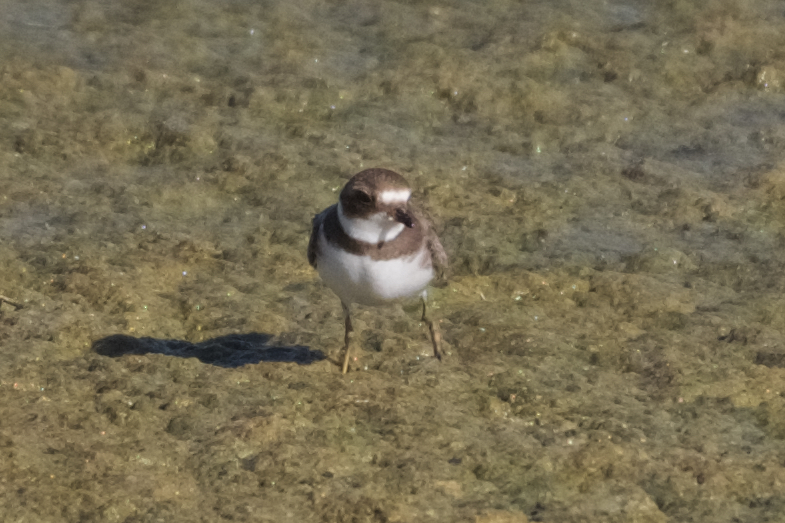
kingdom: Animalia
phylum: Chordata
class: Aves
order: Charadriiformes
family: Charadriidae
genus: Charadrius
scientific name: Charadrius semipalmatus
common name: Semipalmated plover
